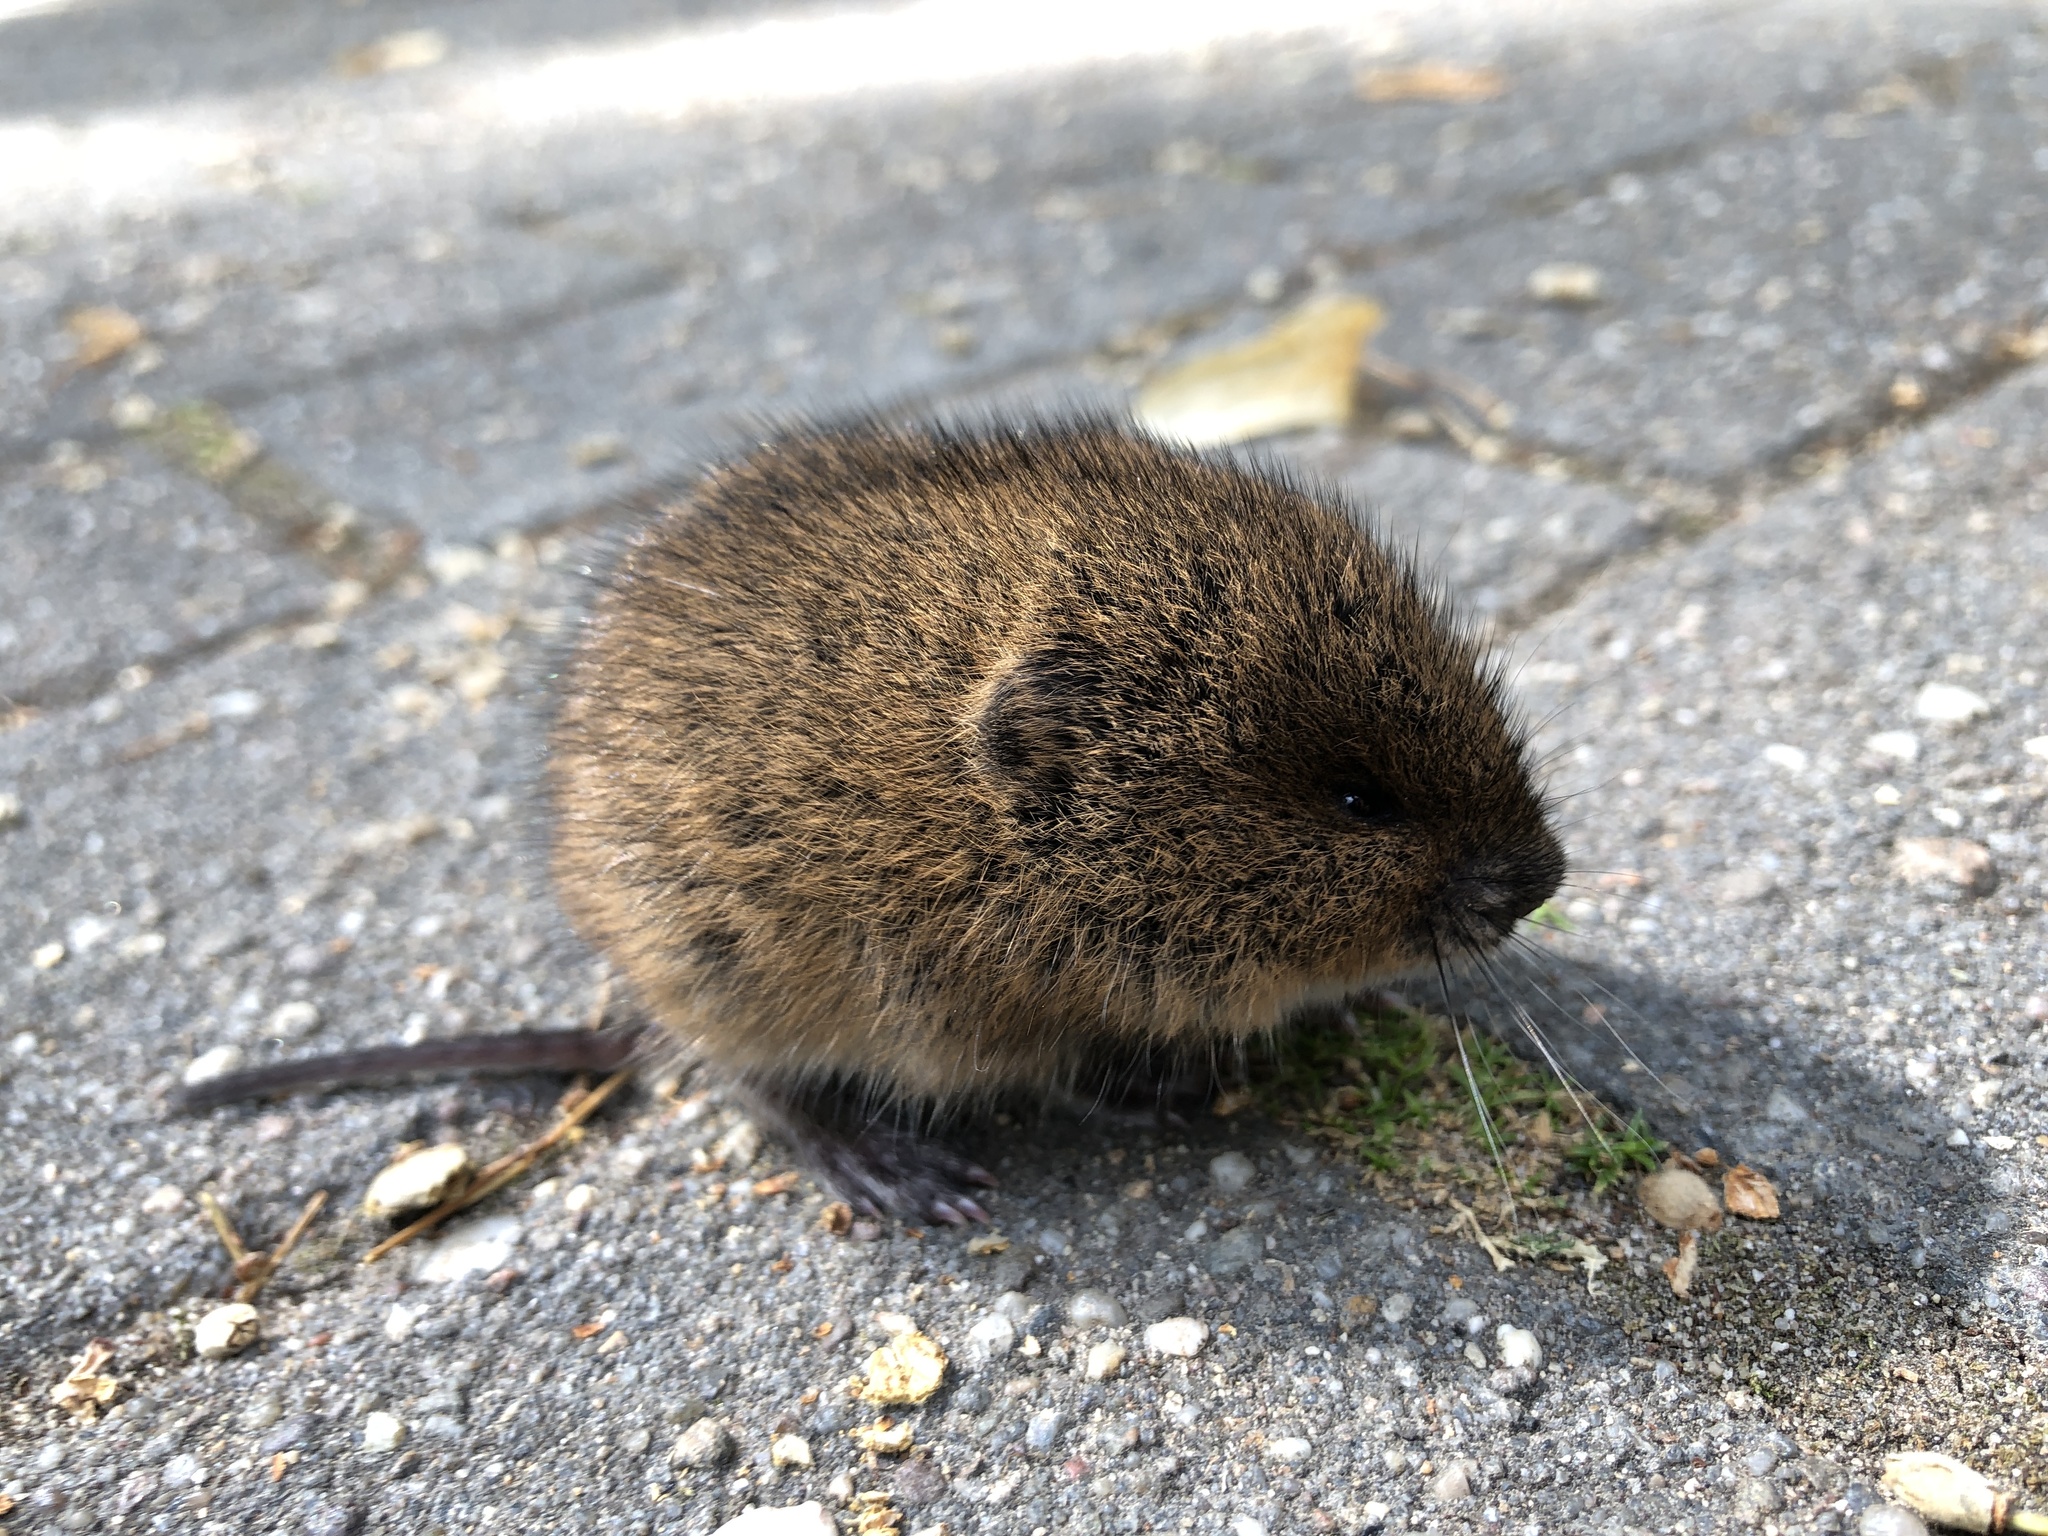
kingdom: Animalia
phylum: Chordata
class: Mammalia
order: Rodentia
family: Cricetidae
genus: Arvicola
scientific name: Arvicola amphibius
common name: European water vole
